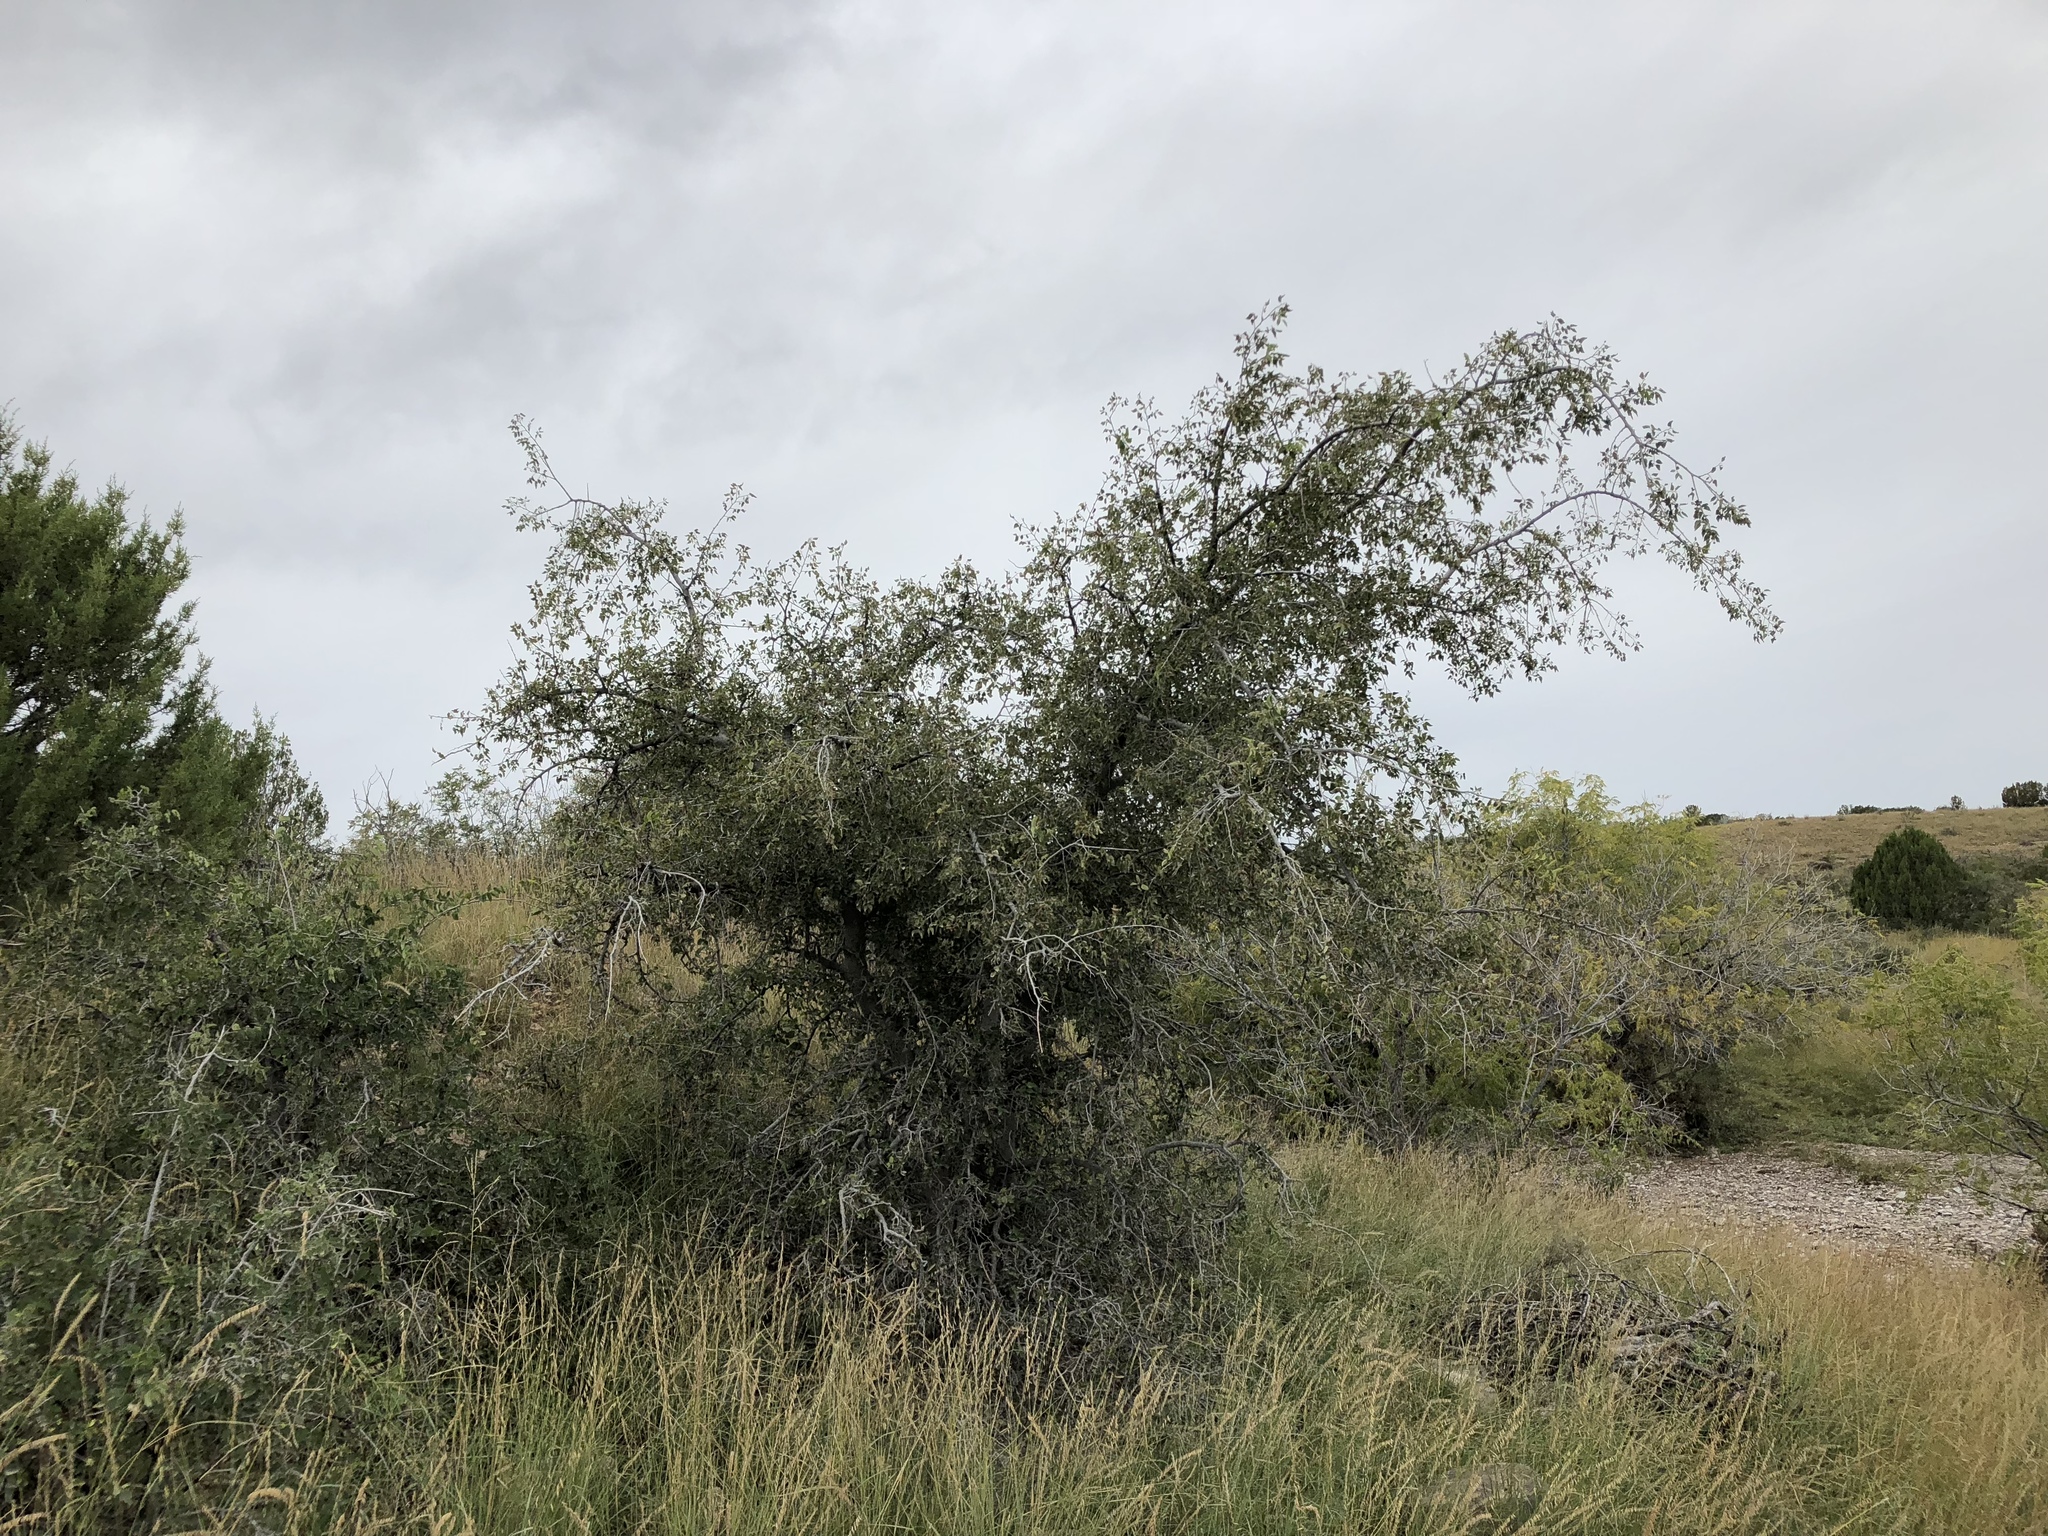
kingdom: Plantae
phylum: Tracheophyta
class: Magnoliopsida
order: Rosales
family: Cannabaceae
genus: Celtis
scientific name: Celtis reticulata
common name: Netleaf hackberry
